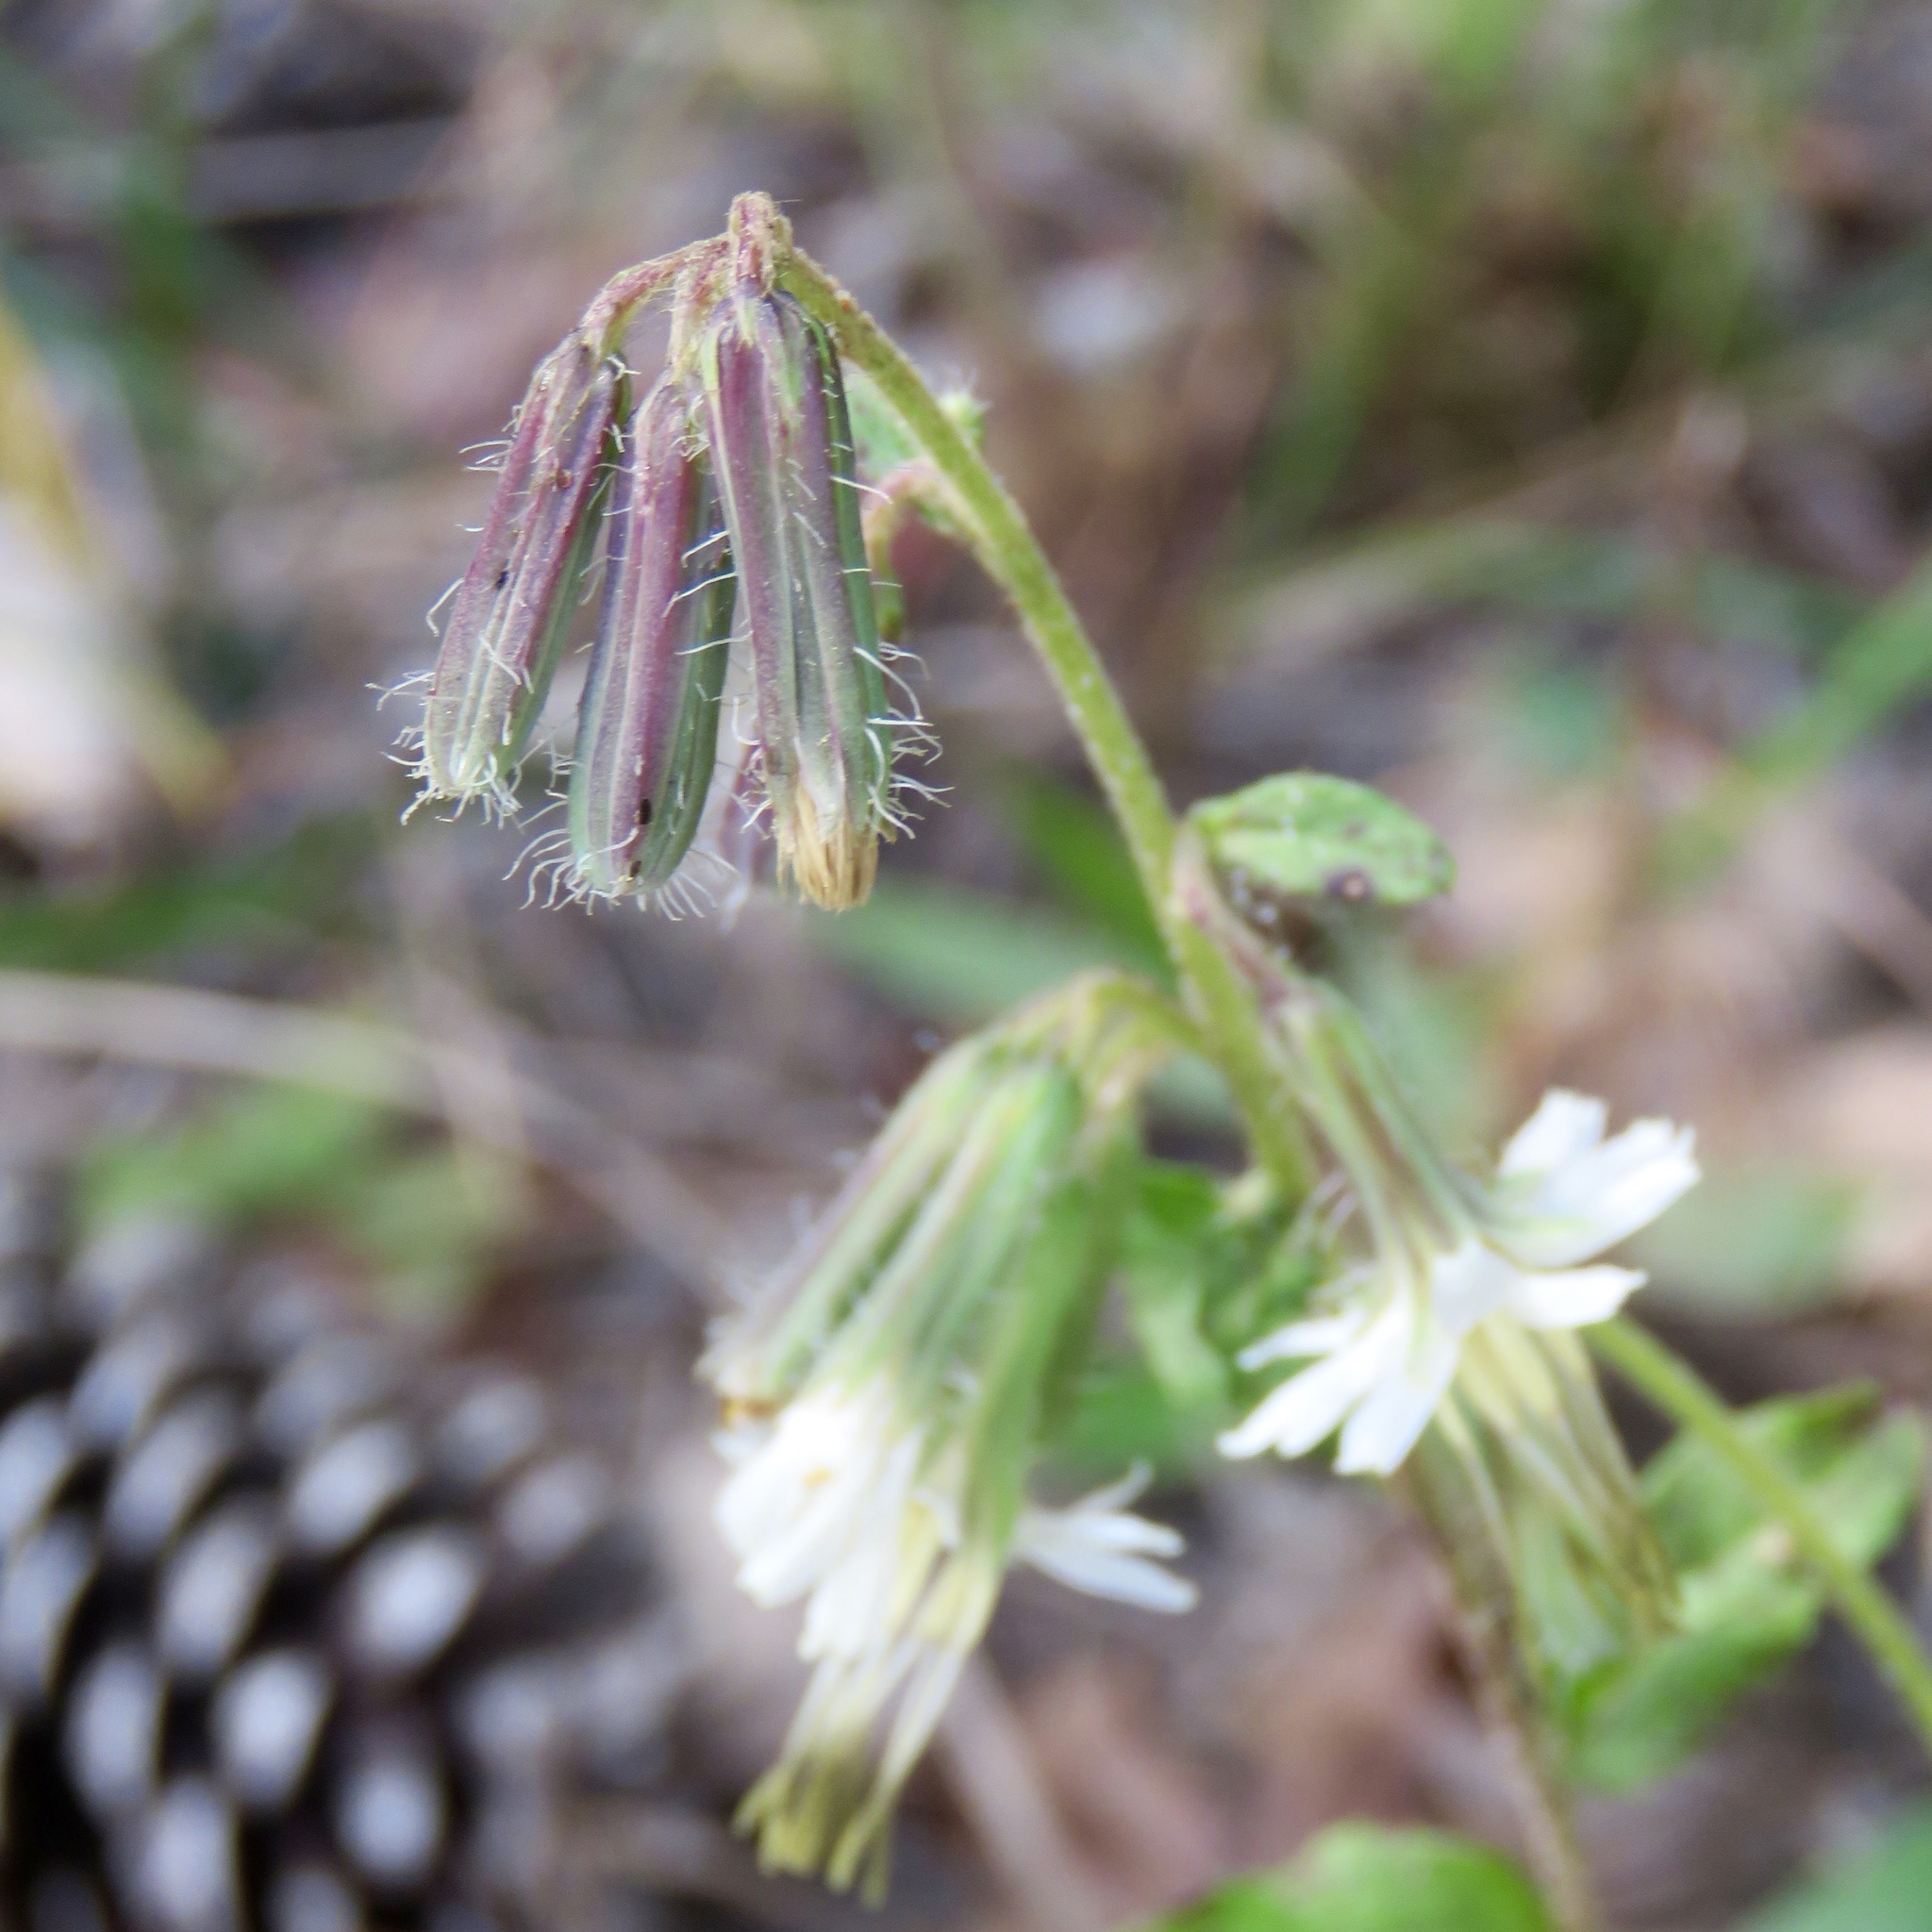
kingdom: Plantae
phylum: Tracheophyta
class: Magnoliopsida
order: Asterales
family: Asteraceae
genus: Nabalus
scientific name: Nabalus barbata
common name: Barbed rattlesnakeroot
